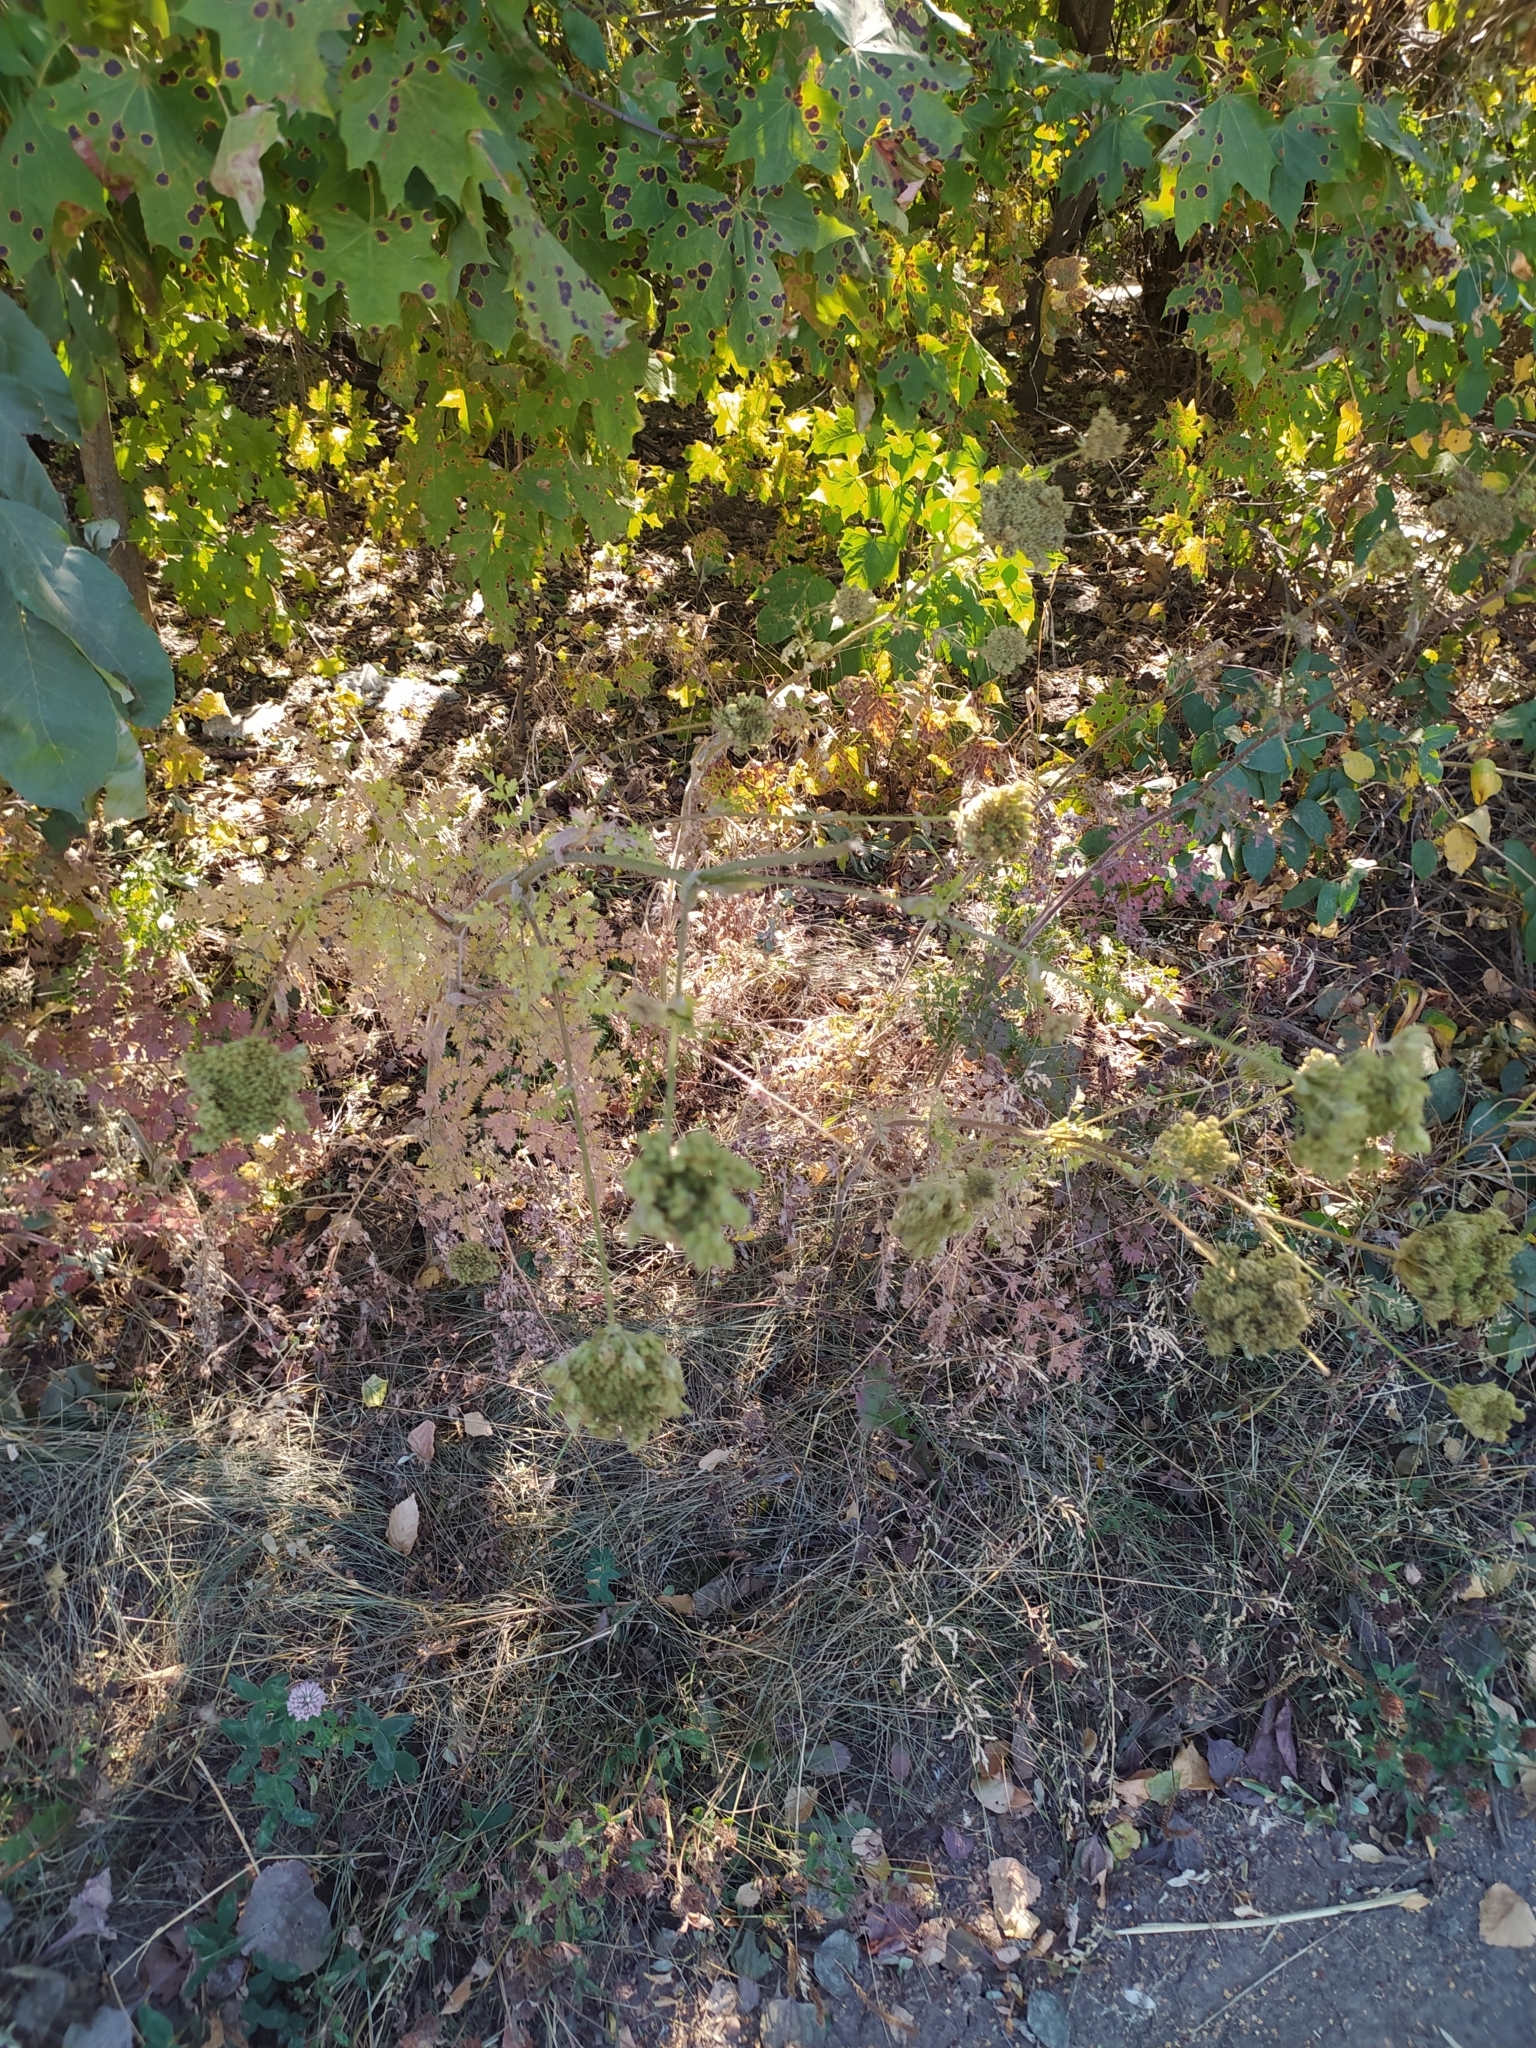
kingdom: Plantae
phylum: Tracheophyta
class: Magnoliopsida
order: Apiales
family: Apiaceae
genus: Daucus
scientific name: Daucus carota
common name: Wild carrot
